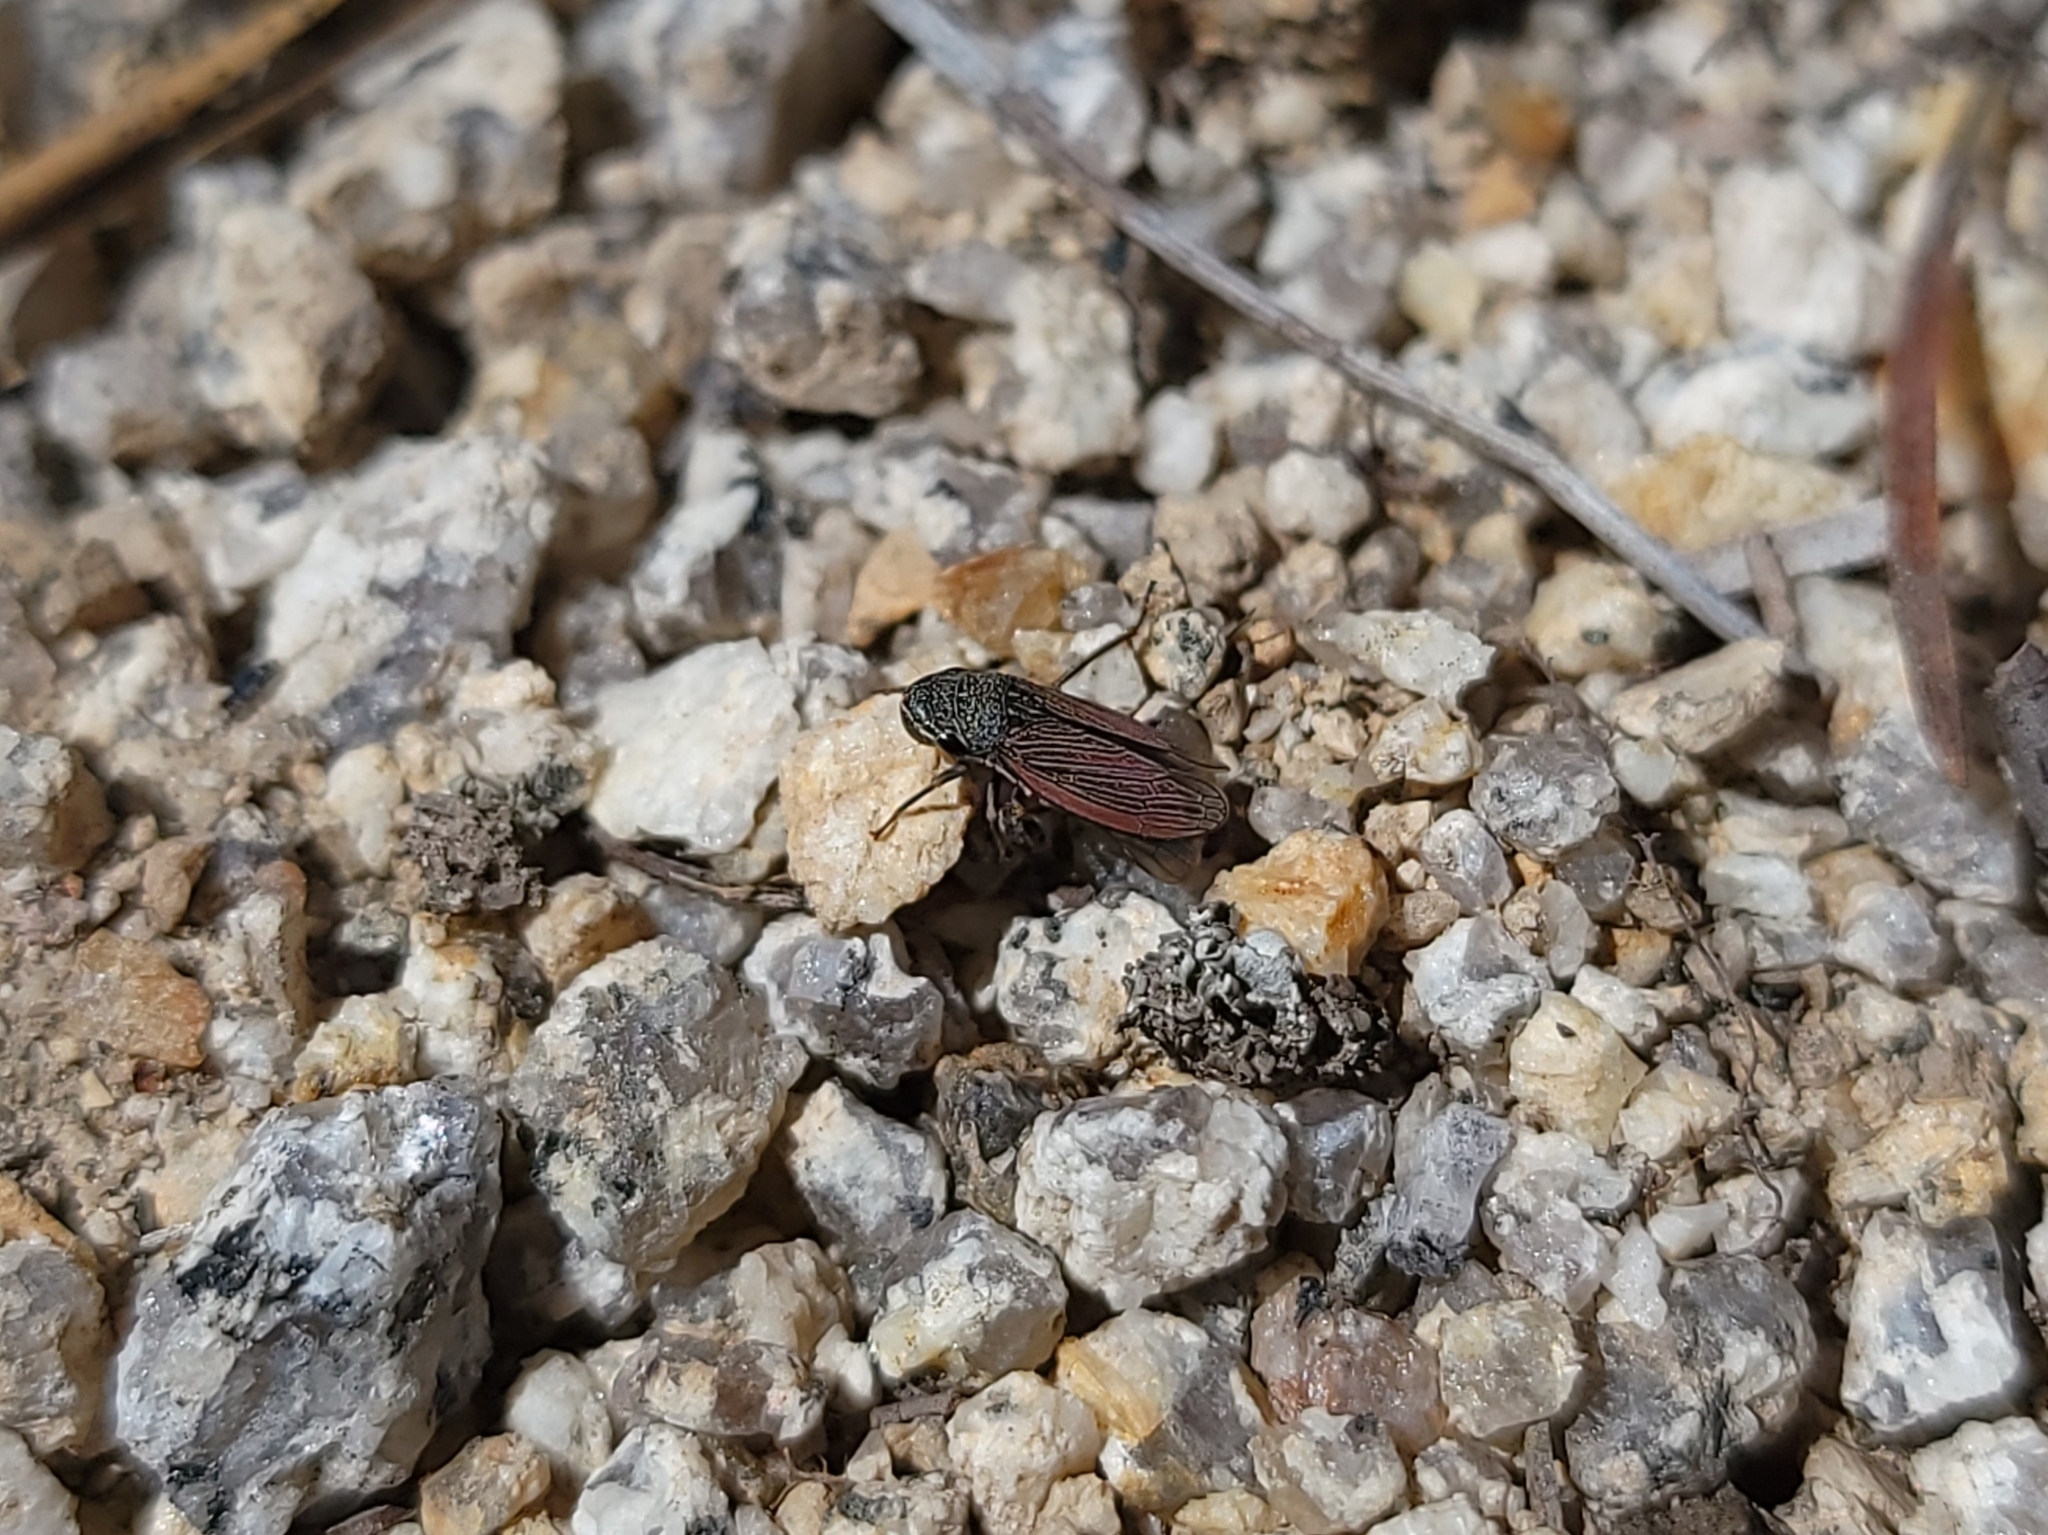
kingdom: Animalia
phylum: Arthropoda
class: Insecta
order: Hemiptera
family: Cicadellidae
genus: Cuerna
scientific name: Cuerna striata
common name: Striped leafhopper
